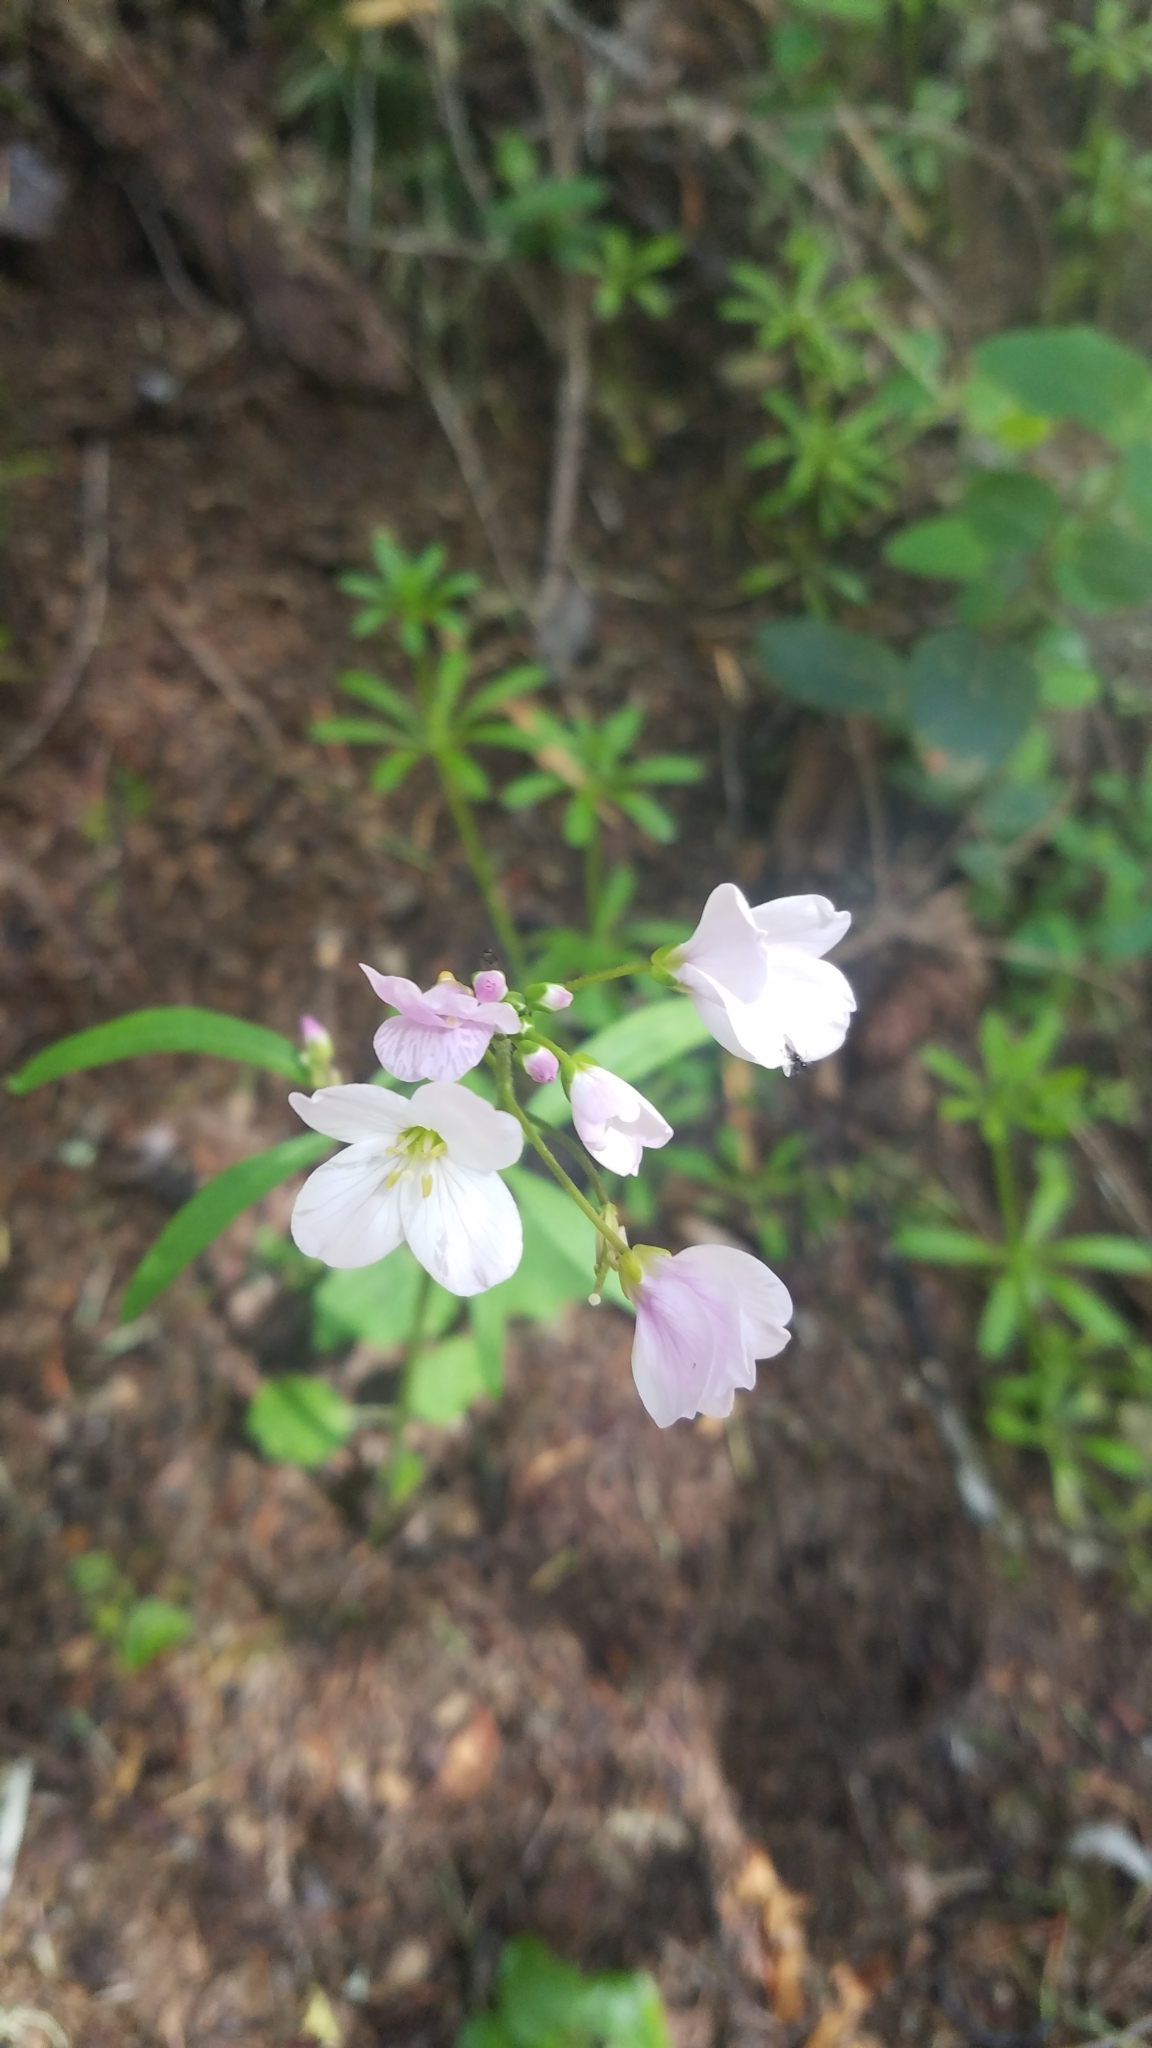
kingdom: Plantae
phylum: Tracheophyta
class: Magnoliopsida
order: Brassicales
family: Brassicaceae
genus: Cardamine
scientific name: Cardamine californica
